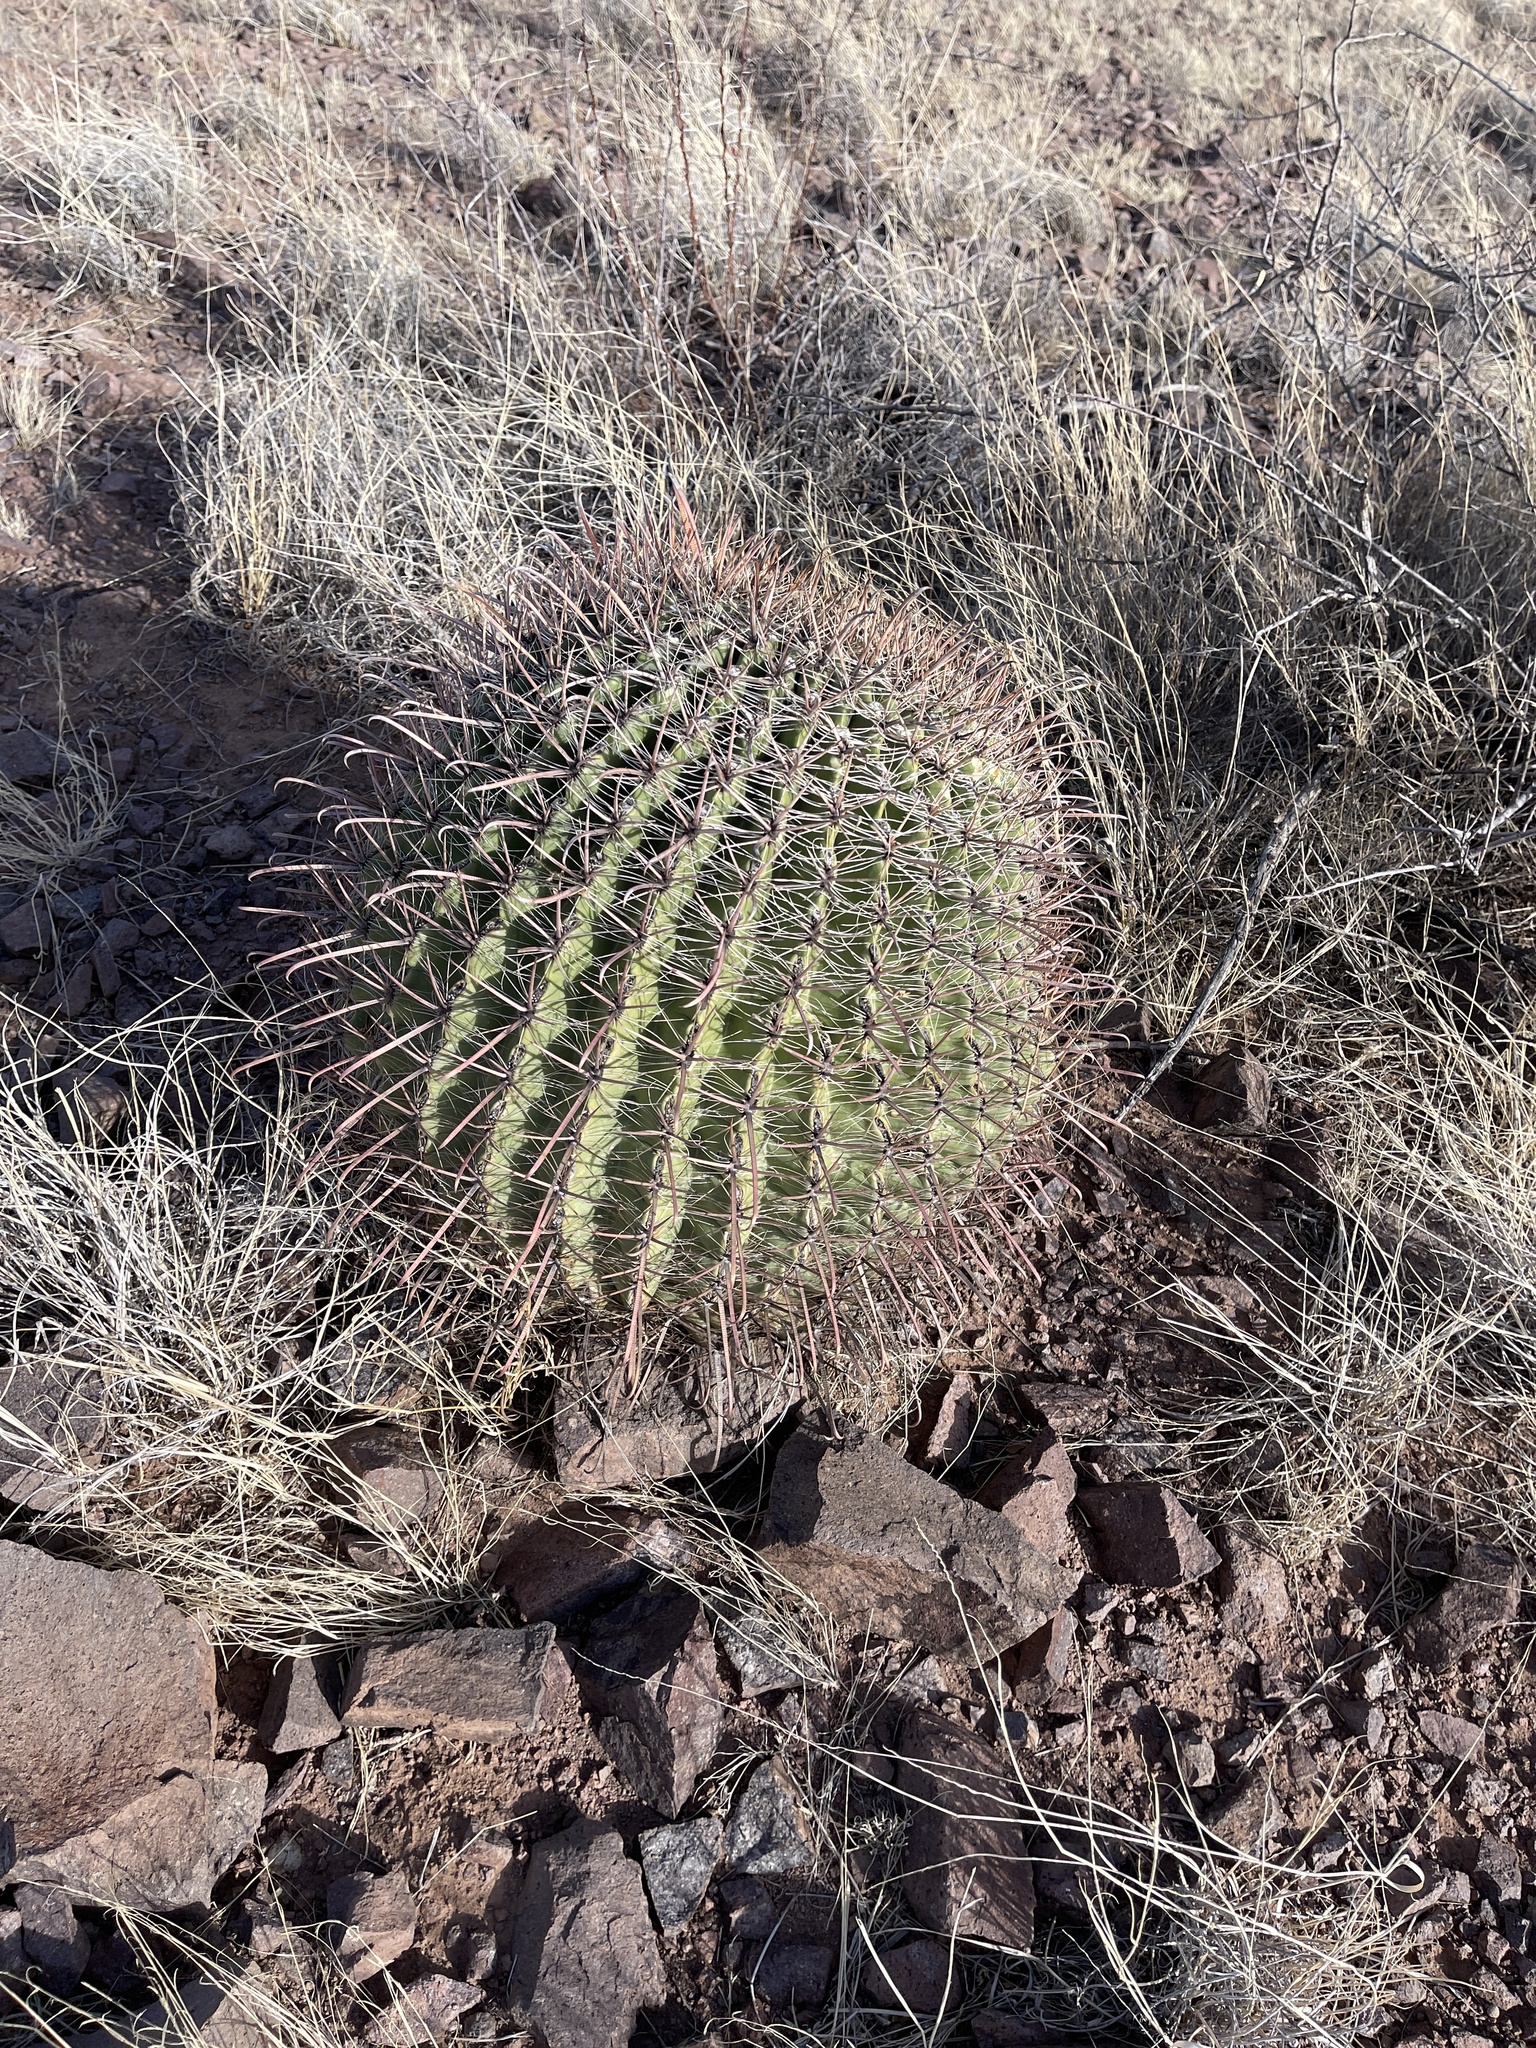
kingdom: Plantae
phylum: Tracheophyta
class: Magnoliopsida
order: Caryophyllales
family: Cactaceae
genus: Ferocactus
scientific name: Ferocactus wislizeni
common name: Candy barrel cactus
